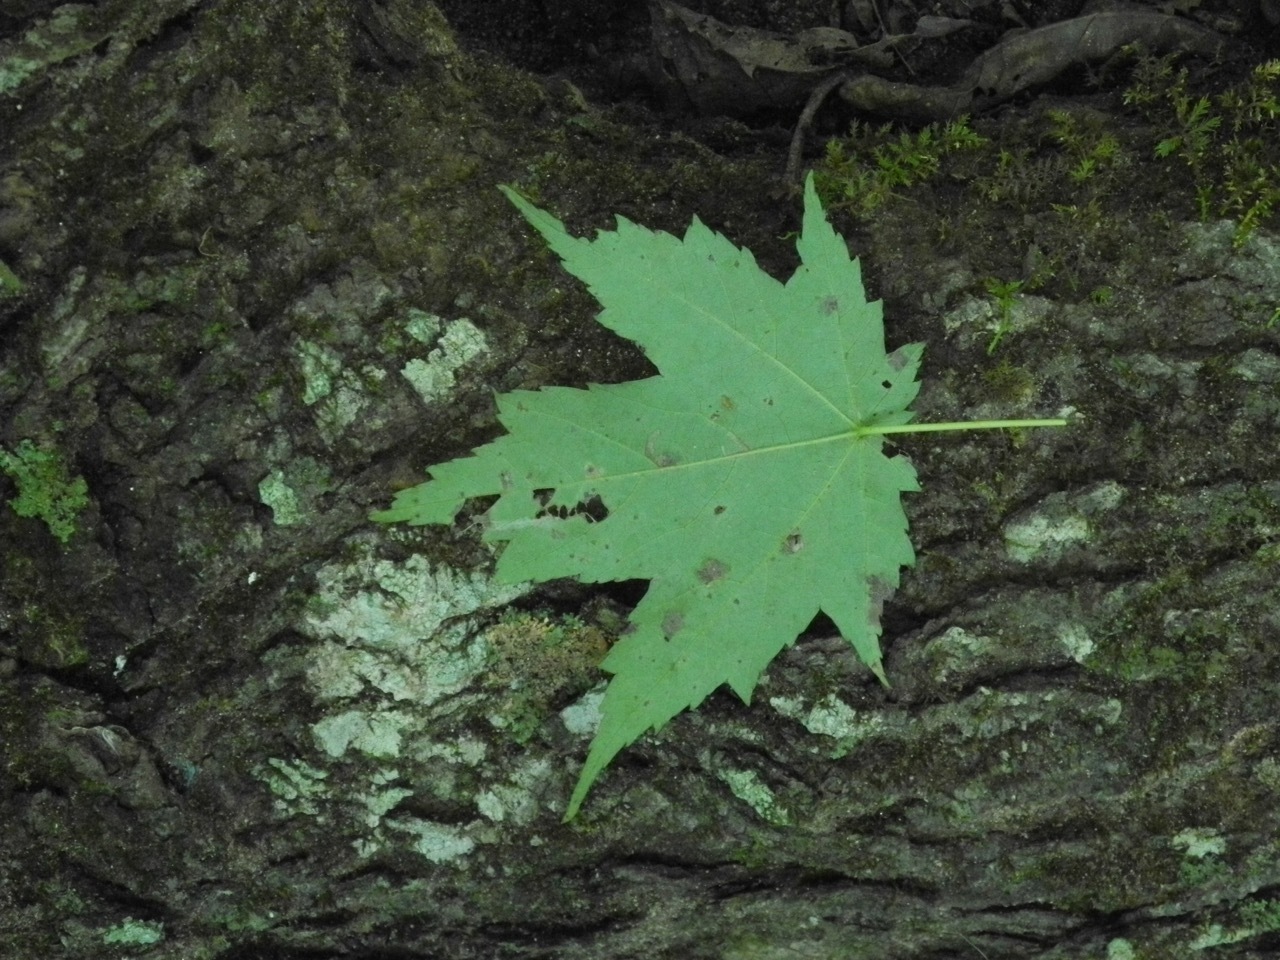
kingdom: Plantae
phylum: Tracheophyta
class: Magnoliopsida
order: Sapindales
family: Sapindaceae
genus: Acer
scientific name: Acer freemanii
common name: Freeman maple
